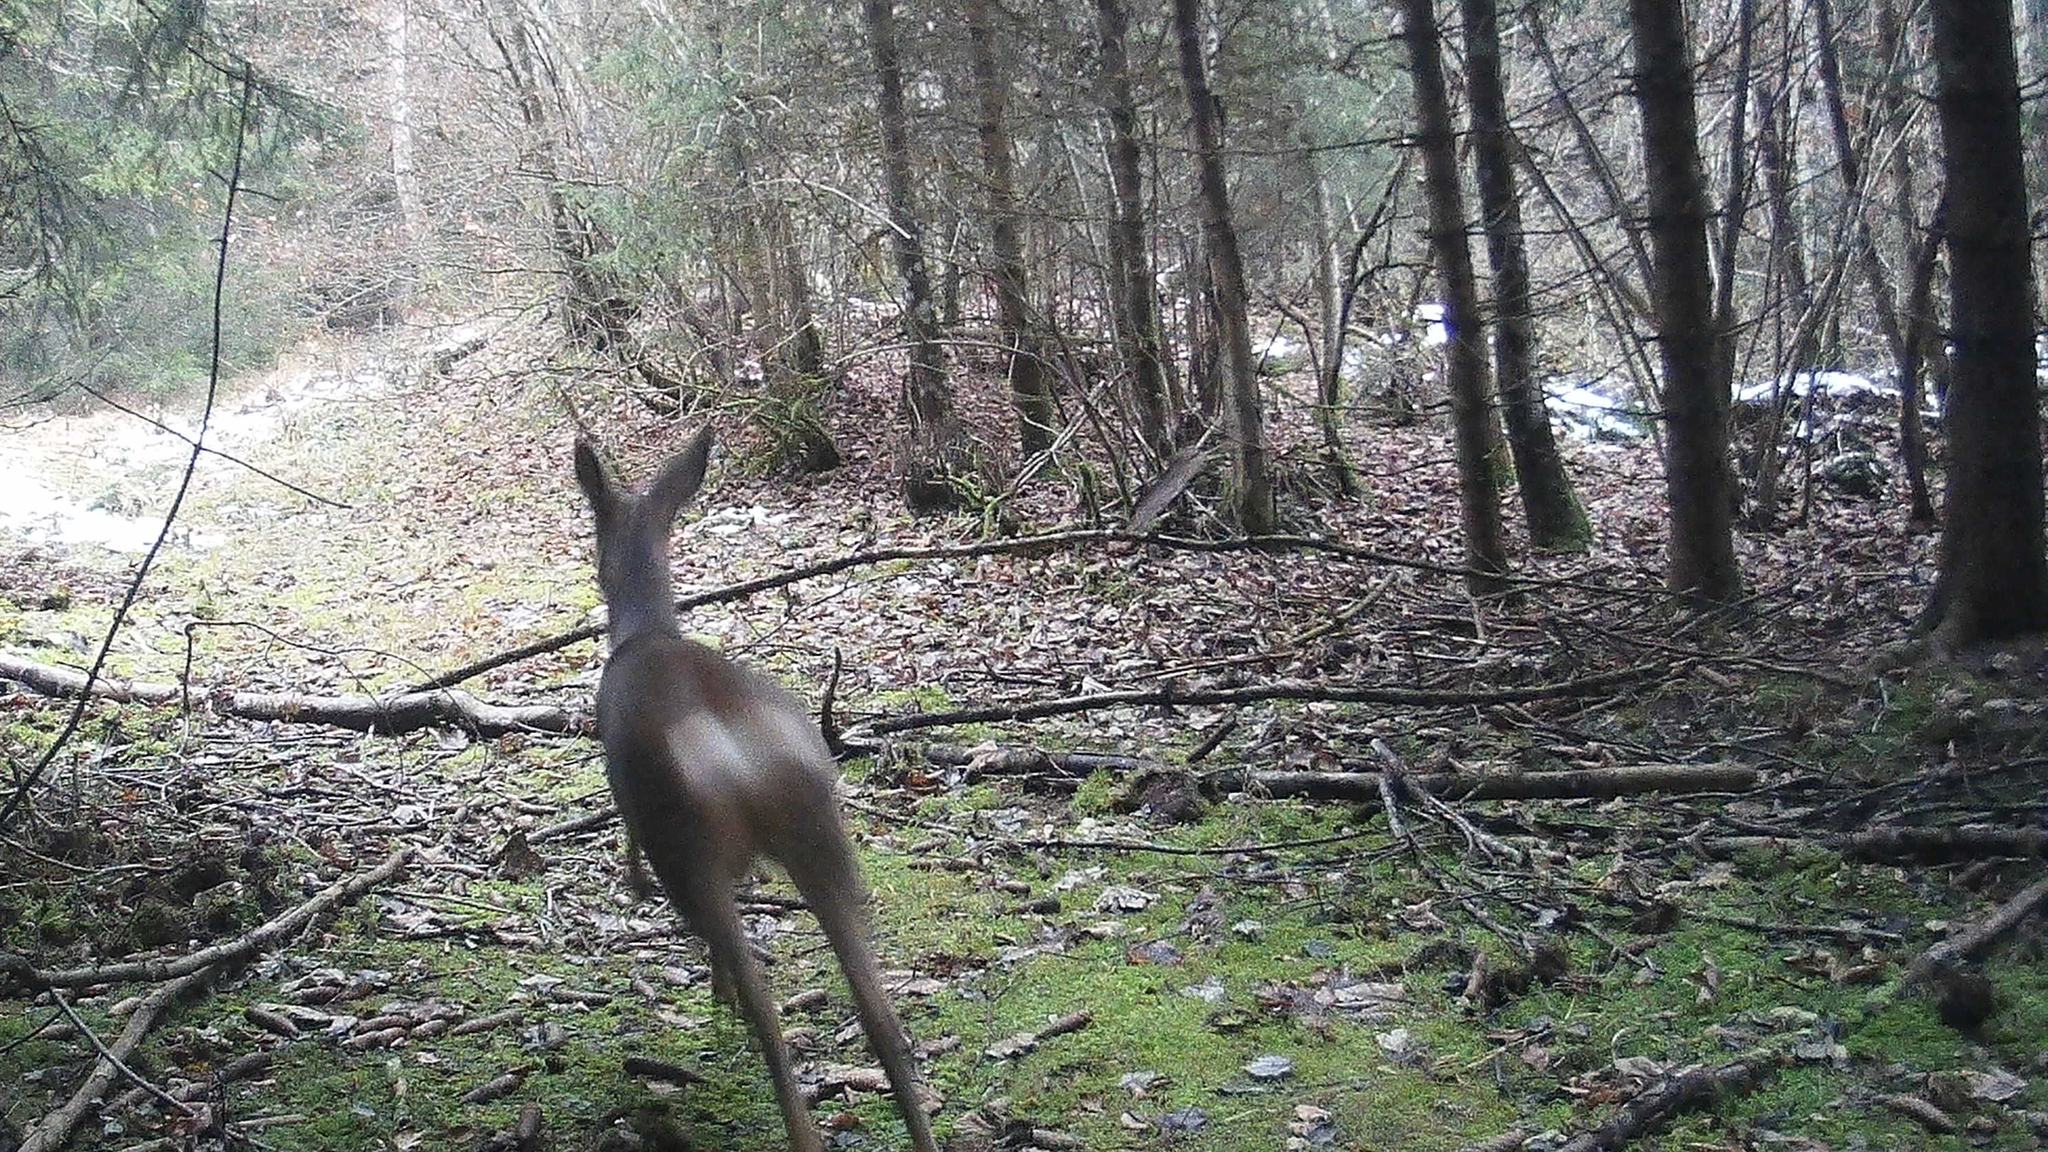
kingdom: Animalia
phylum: Chordata
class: Mammalia
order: Artiodactyla
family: Cervidae
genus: Capreolus
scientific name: Capreolus capreolus
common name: Western roe deer
